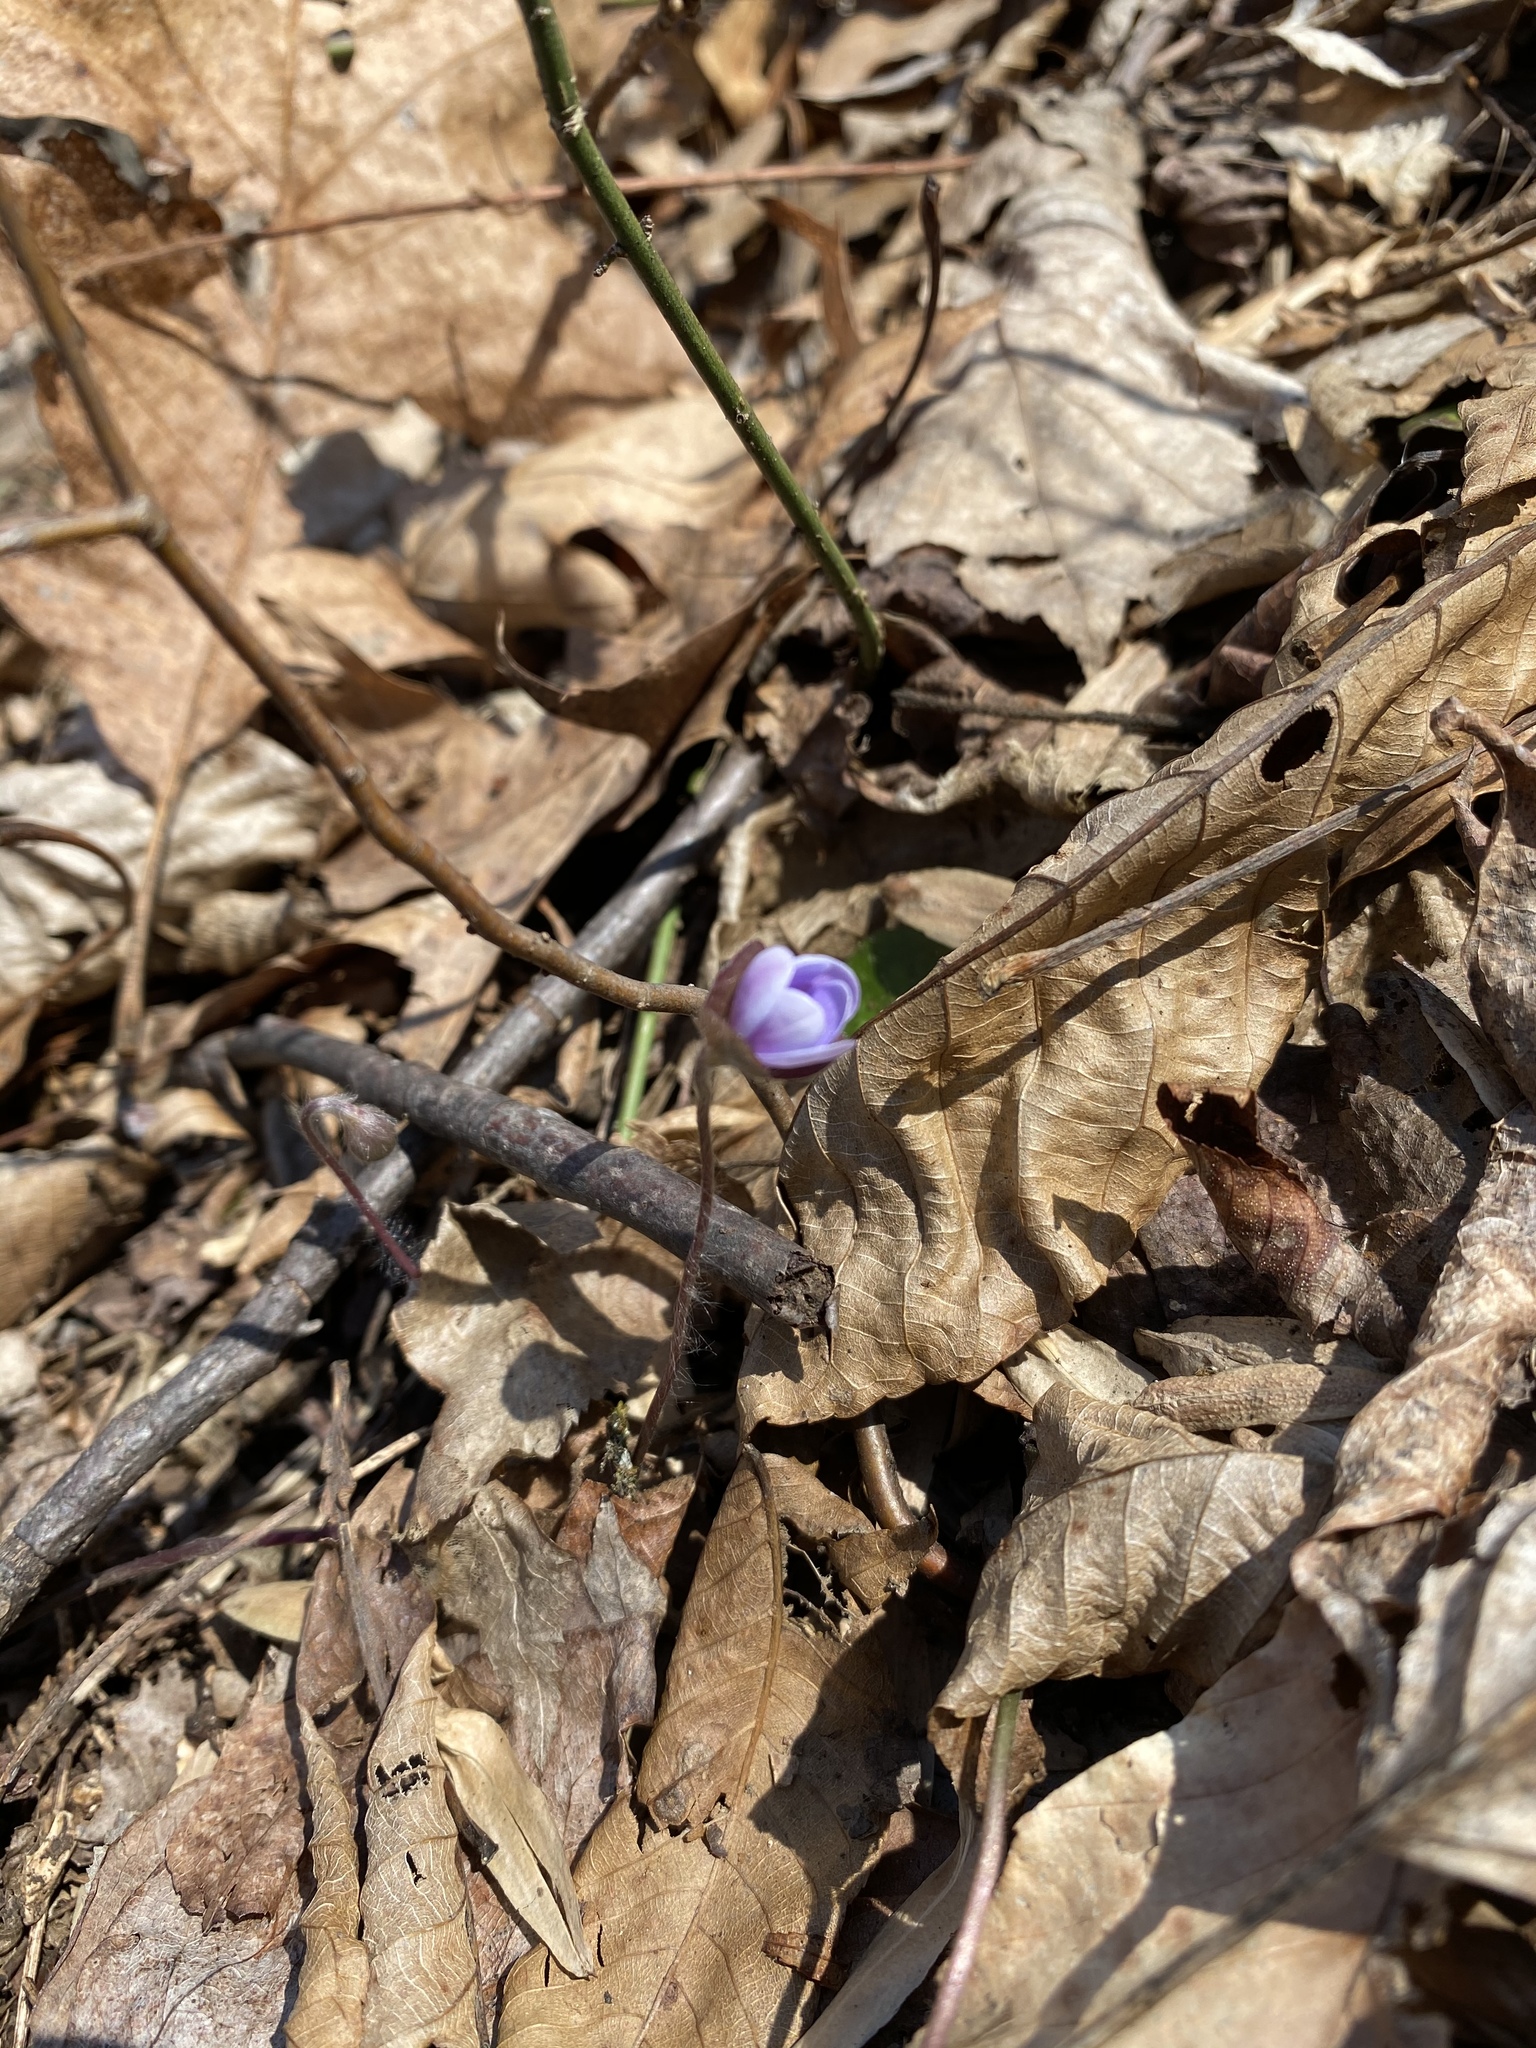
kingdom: Plantae
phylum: Tracheophyta
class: Magnoliopsida
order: Ranunculales
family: Ranunculaceae
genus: Hepatica
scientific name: Hepatica americana
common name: American hepatica
